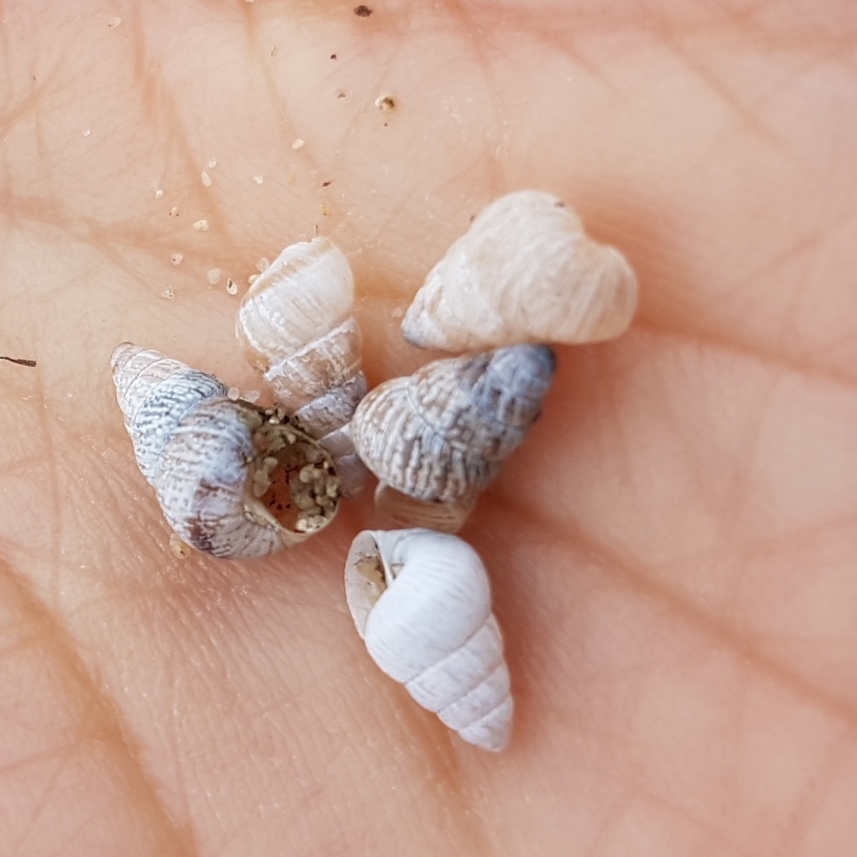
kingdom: Animalia
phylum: Mollusca
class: Gastropoda
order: Stylommatophora
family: Geomitridae
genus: Cochlicella
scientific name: Cochlicella barbara
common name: Potbellied helicellid
